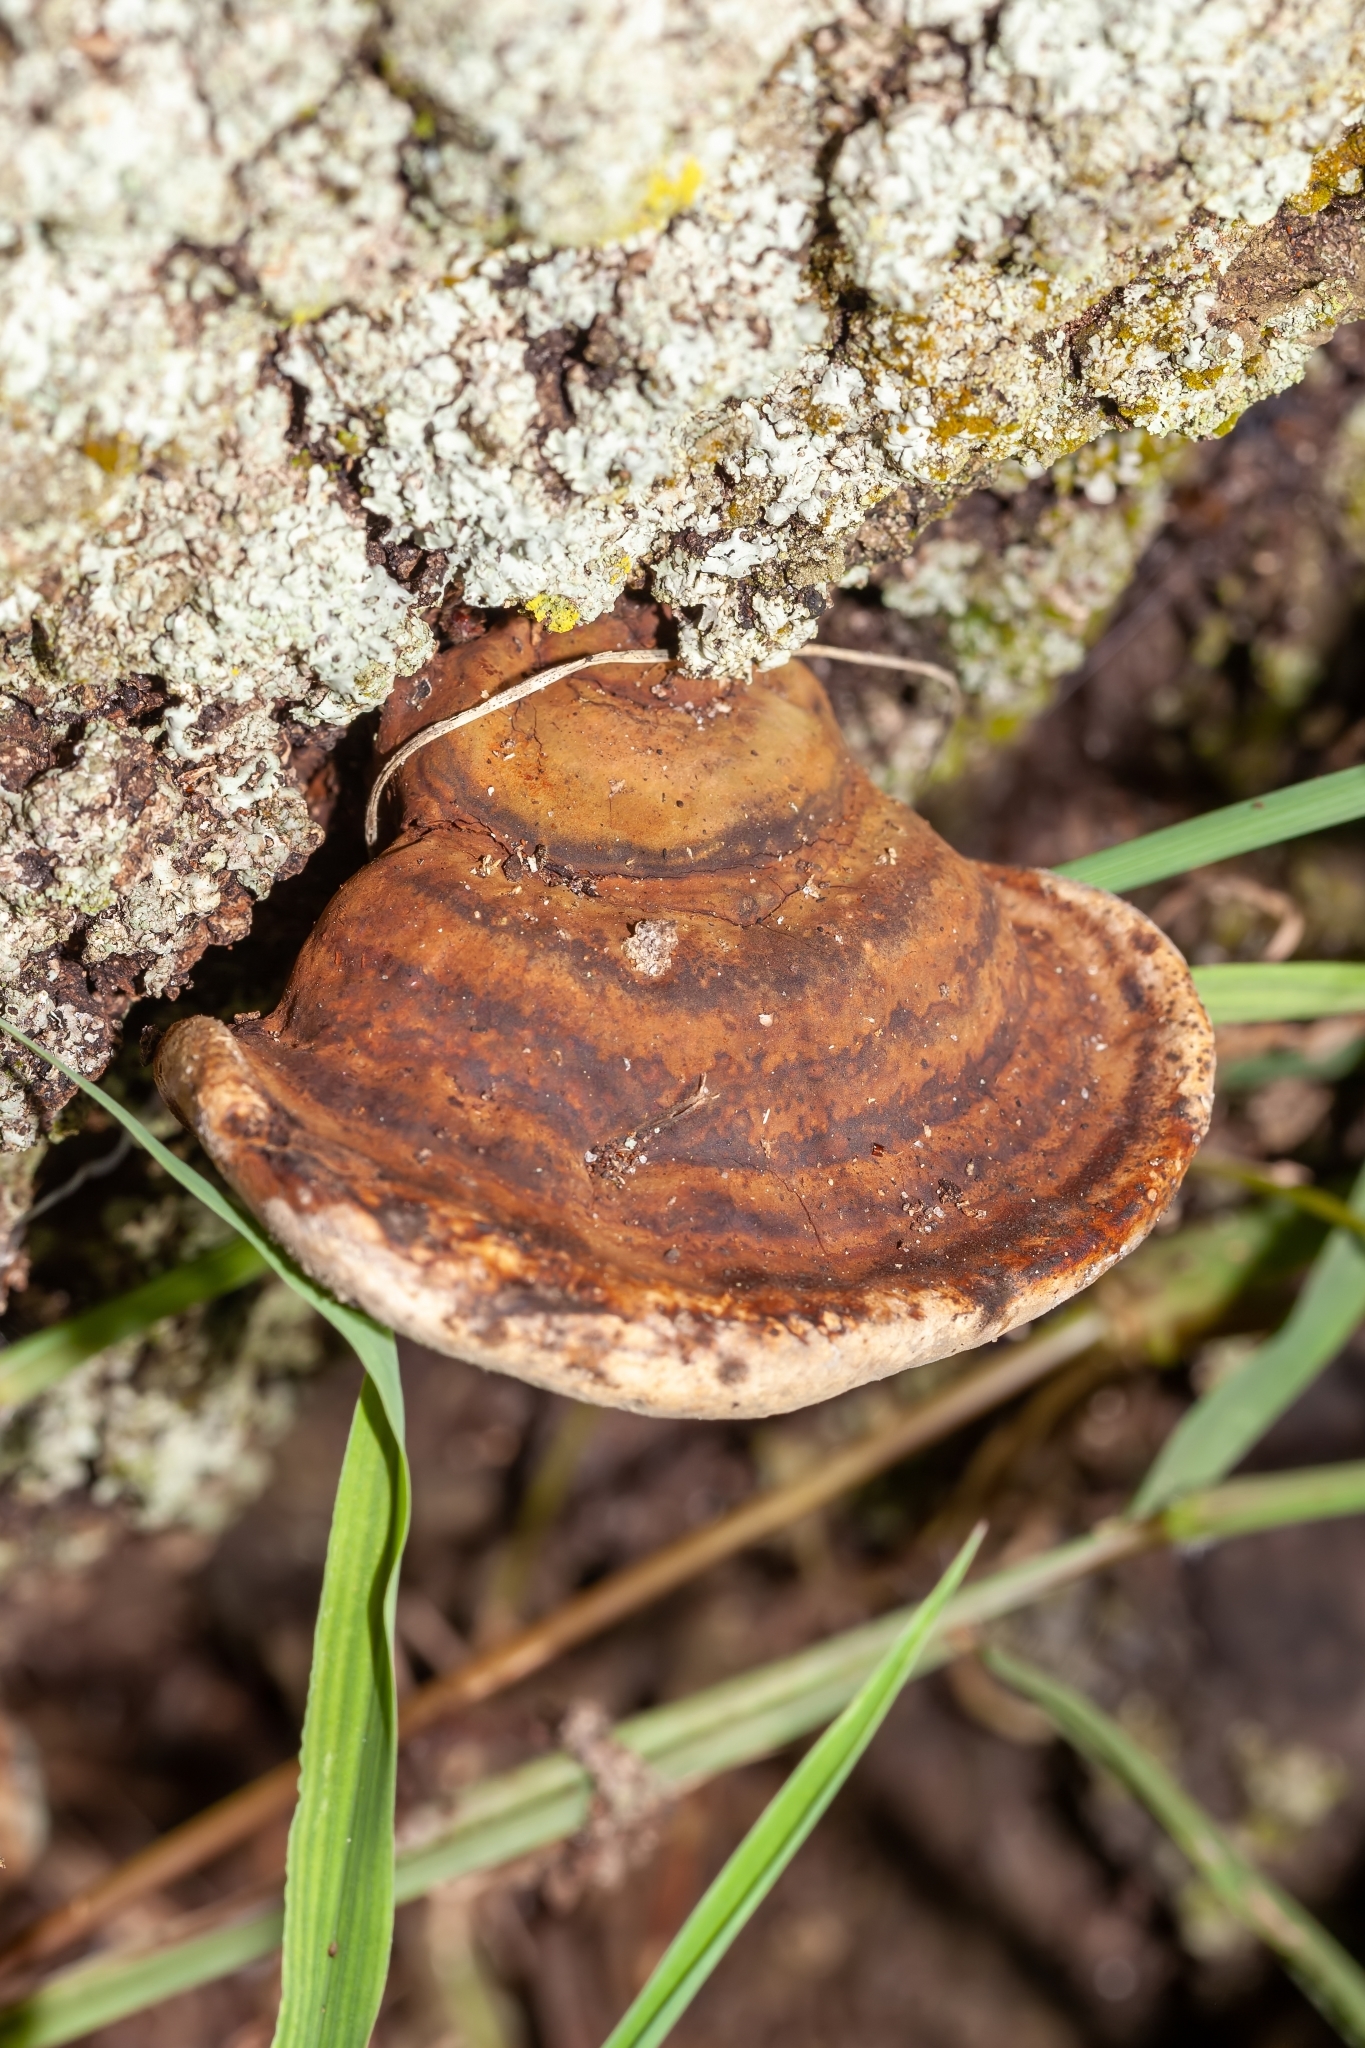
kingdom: Fungi
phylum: Basidiomycota
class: Agaricomycetes
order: Polyporales
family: Polyporaceae
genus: Ganoderma
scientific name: Ganoderma curtisii
